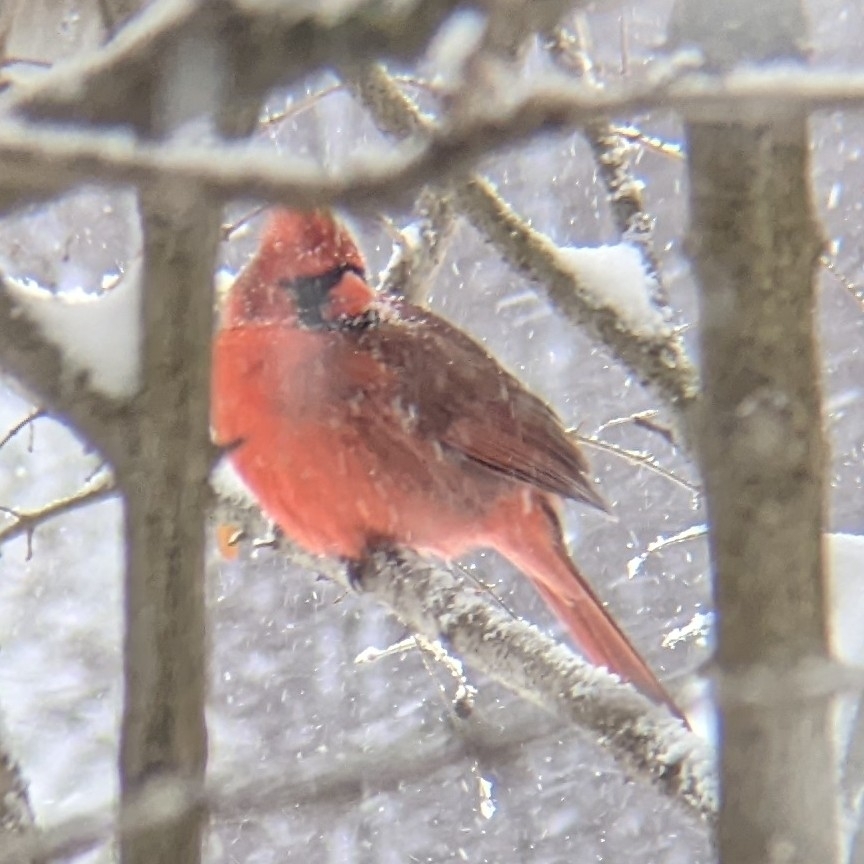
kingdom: Animalia
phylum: Chordata
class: Aves
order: Passeriformes
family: Cardinalidae
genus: Cardinalis
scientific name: Cardinalis cardinalis
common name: Northern cardinal
